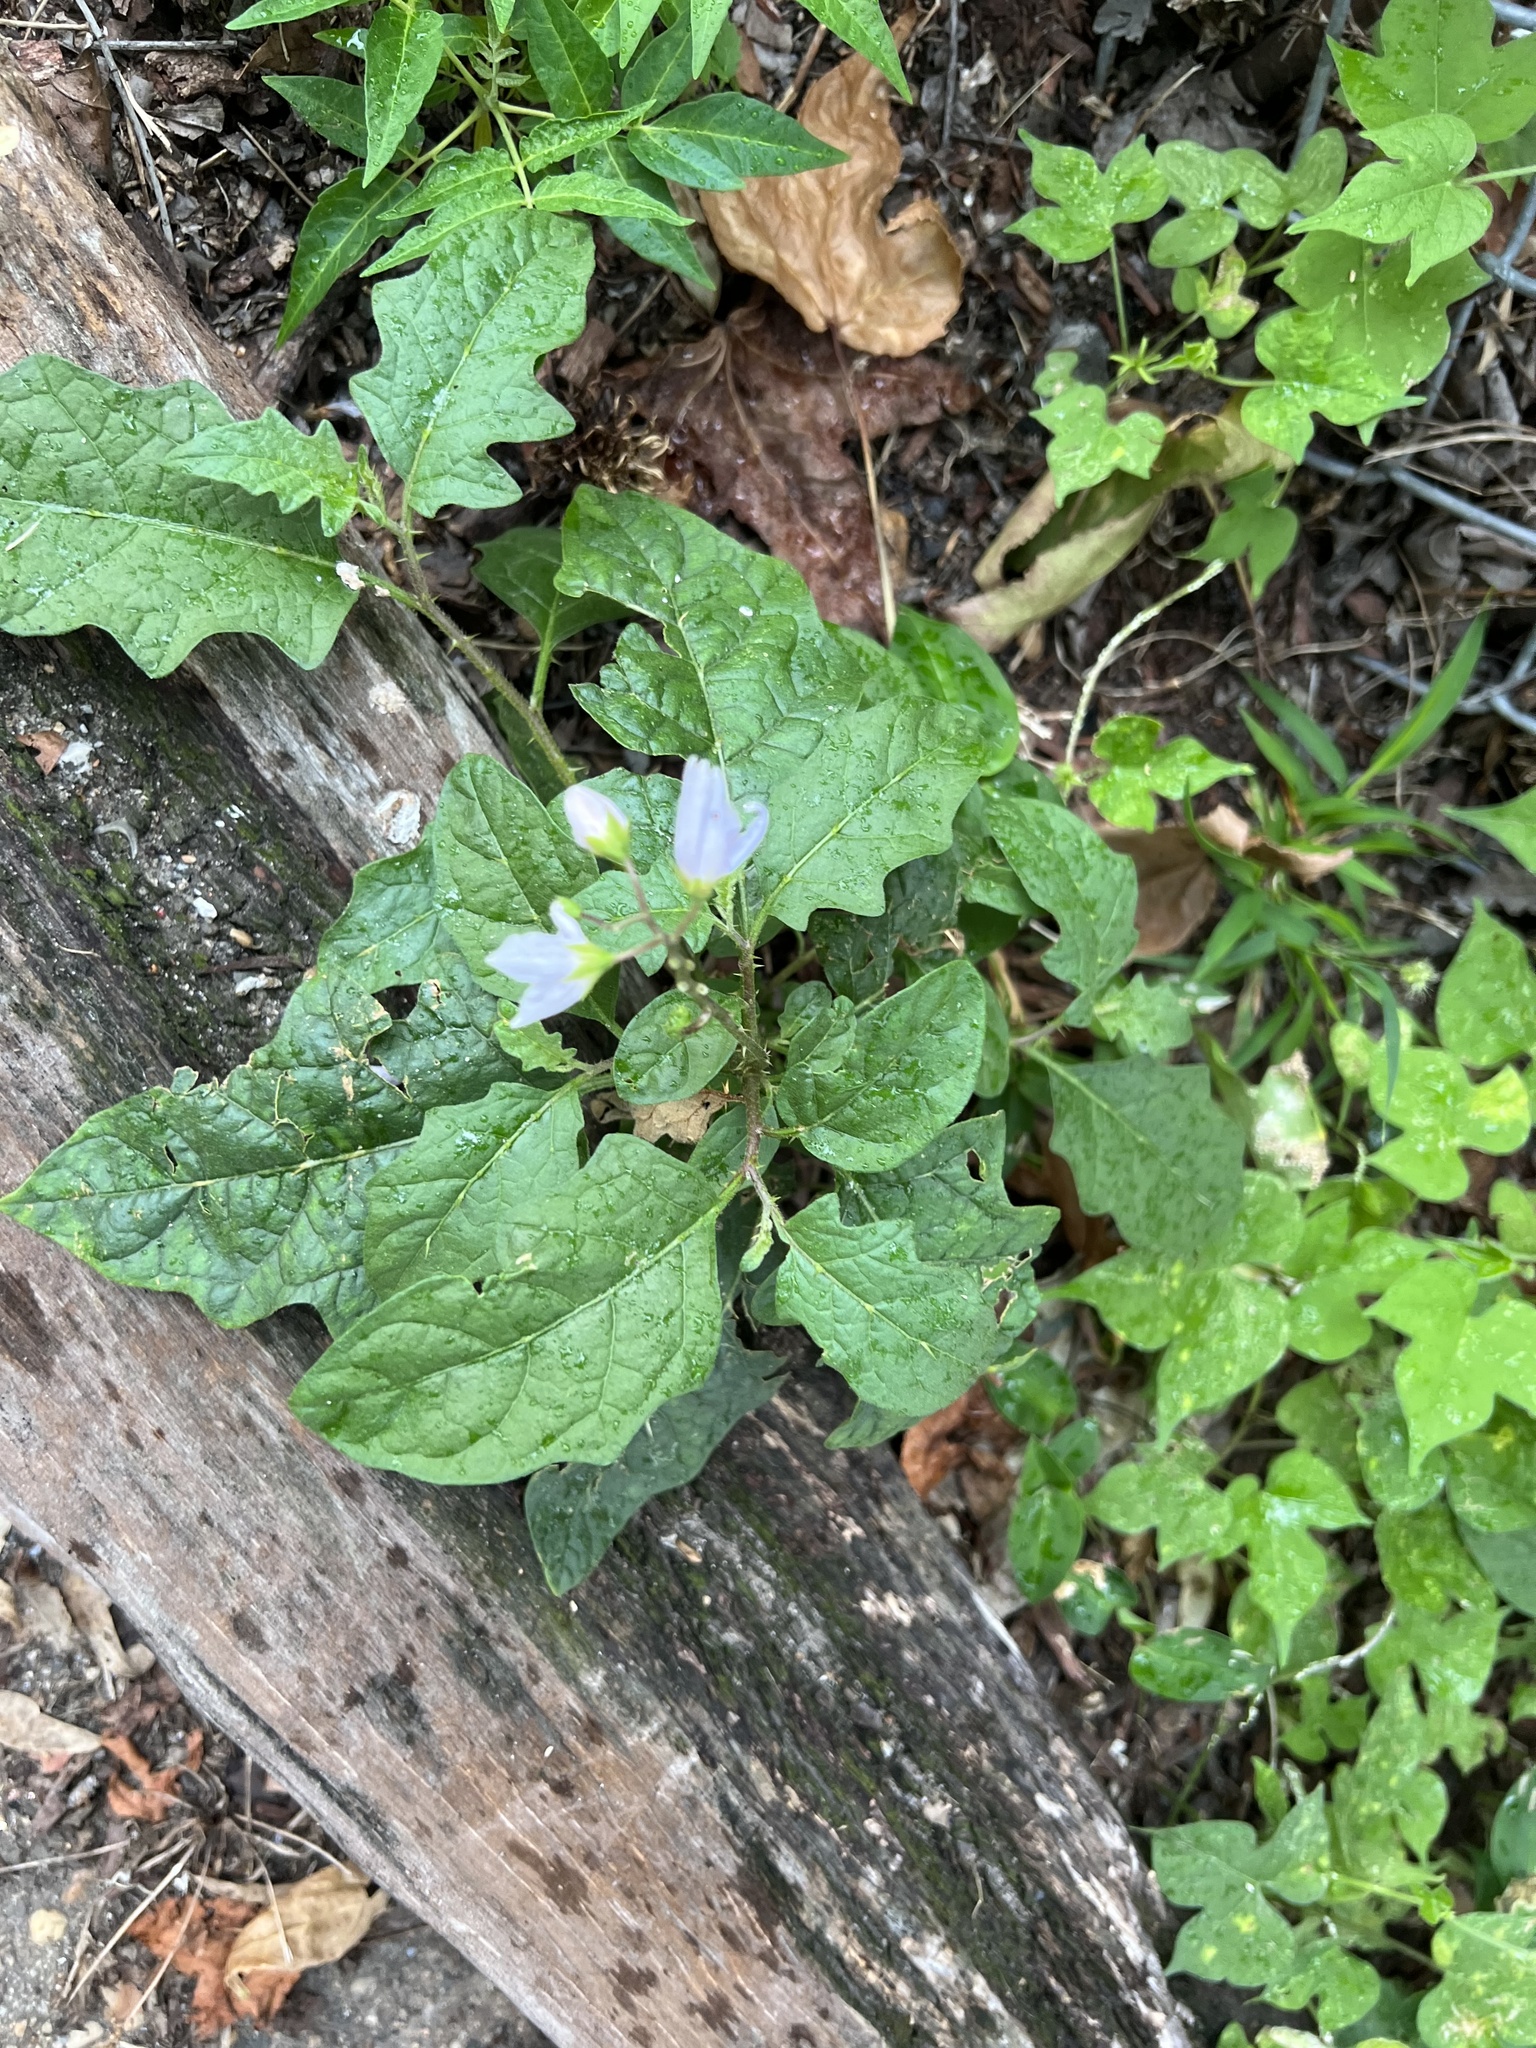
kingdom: Plantae
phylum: Tracheophyta
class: Magnoliopsida
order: Solanales
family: Solanaceae
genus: Solanum
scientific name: Solanum carolinense
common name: Horse-nettle
